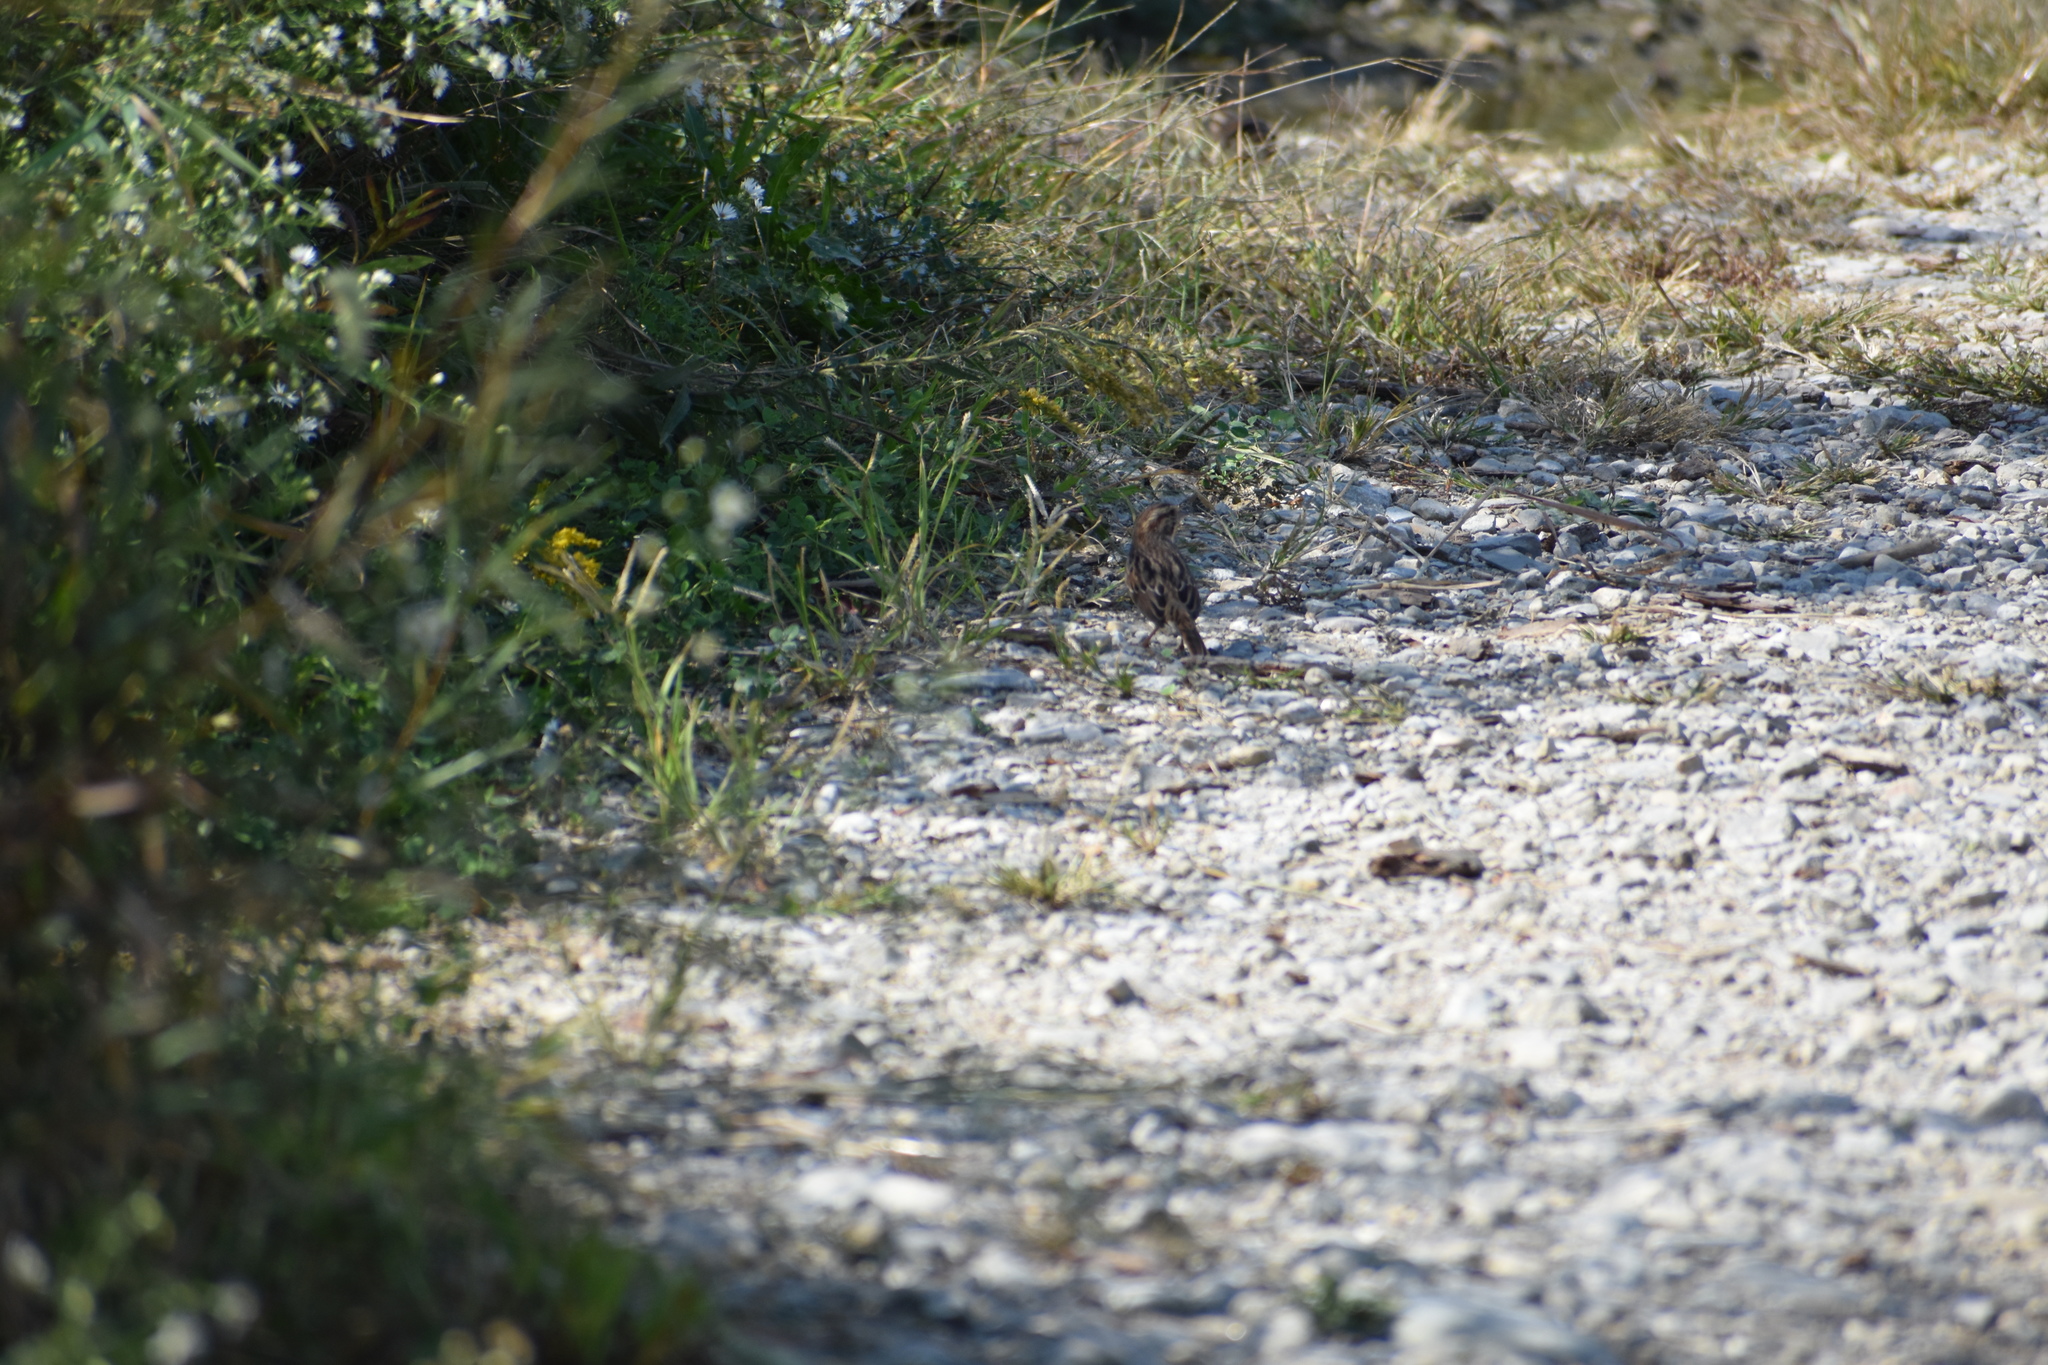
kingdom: Animalia
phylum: Chordata
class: Aves
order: Passeriformes
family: Passerellidae
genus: Melospiza
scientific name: Melospiza melodia
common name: Song sparrow
